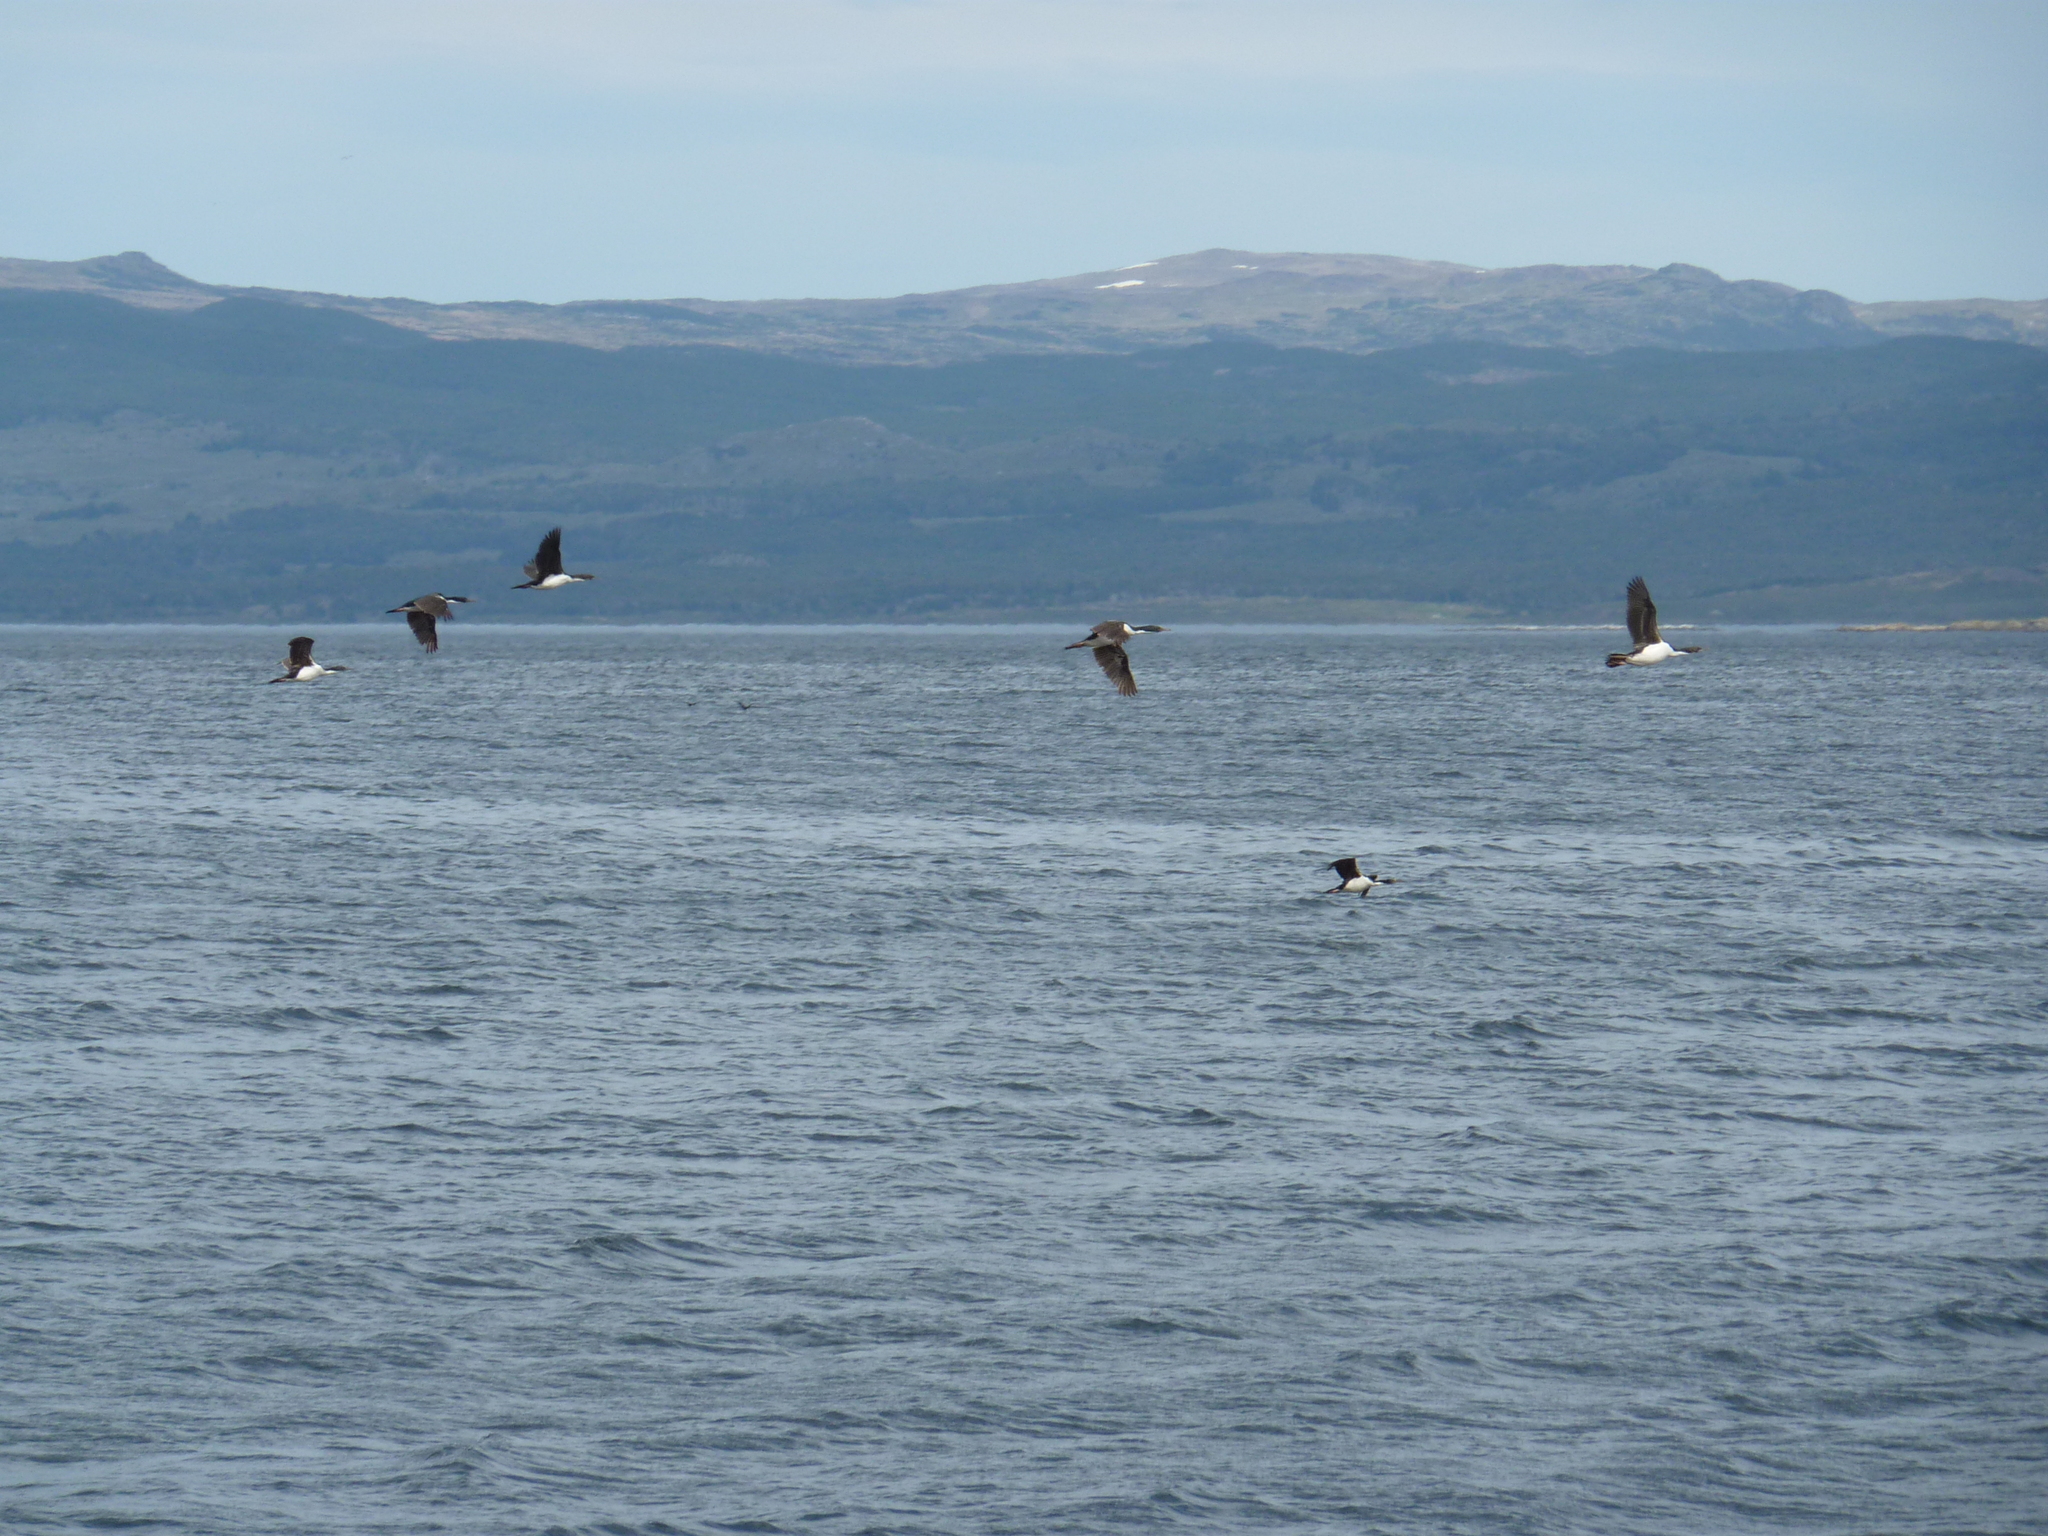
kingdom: Animalia
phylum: Chordata
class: Aves
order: Suliformes
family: Phalacrocoracidae
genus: Leucocarbo
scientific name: Leucocarbo atriceps
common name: Imperial shag
